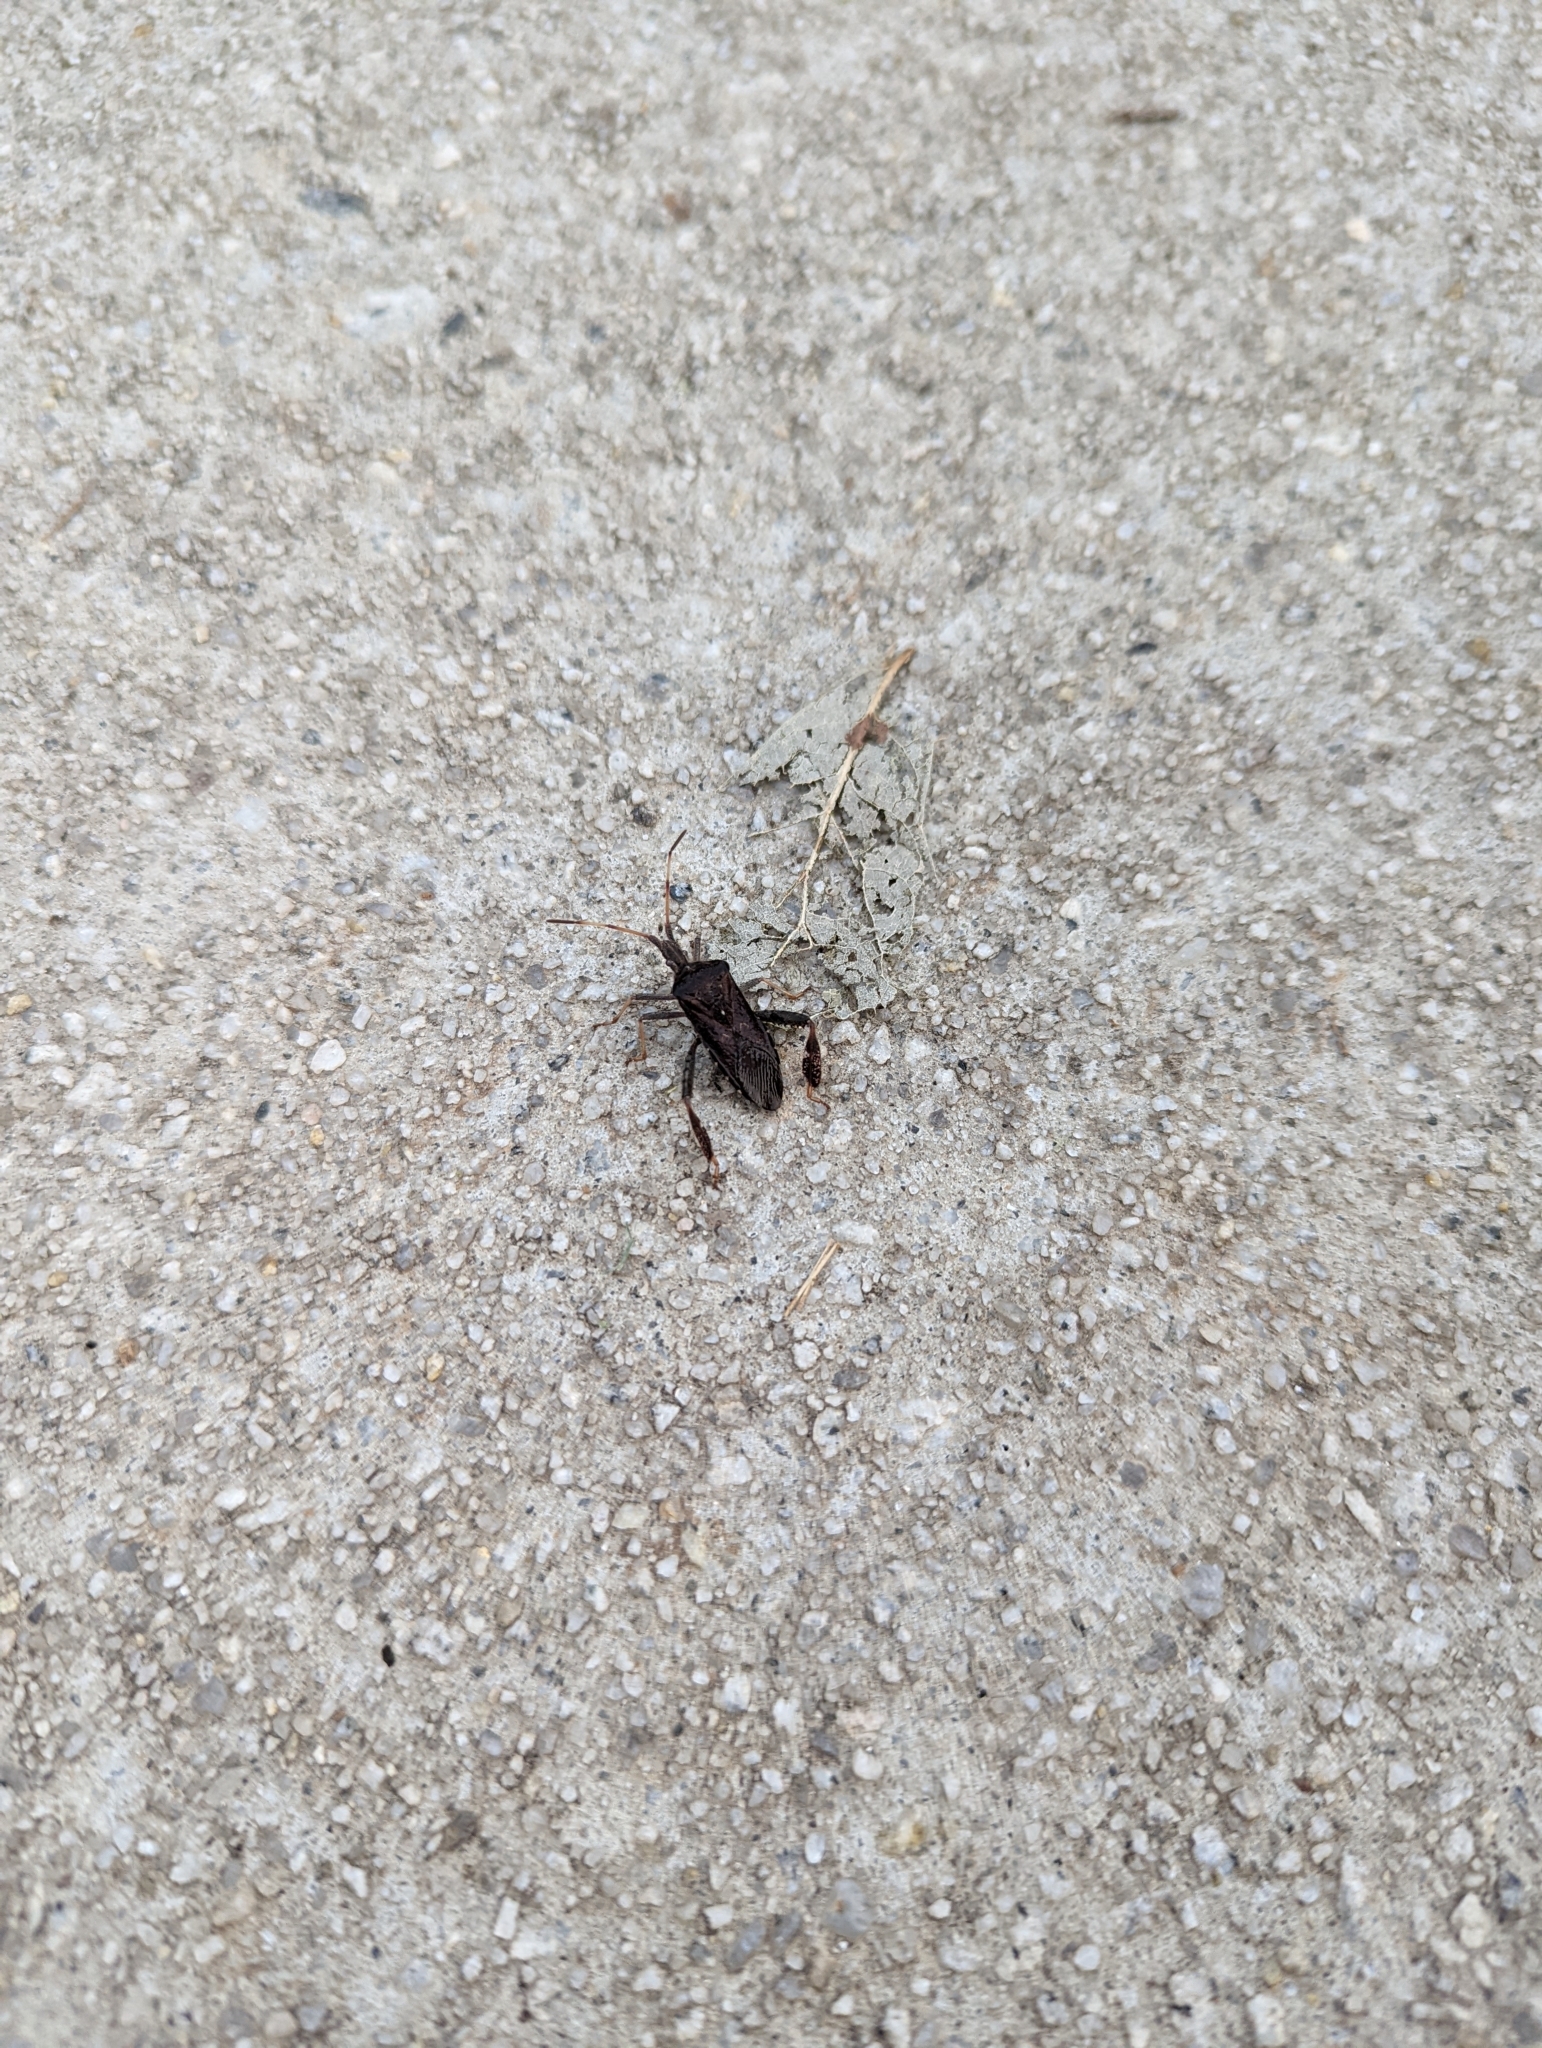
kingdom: Animalia
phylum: Arthropoda
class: Insecta
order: Hemiptera
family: Coreidae
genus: Leptoglossus
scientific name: Leptoglossus corculus
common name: Southern pine seed bug
